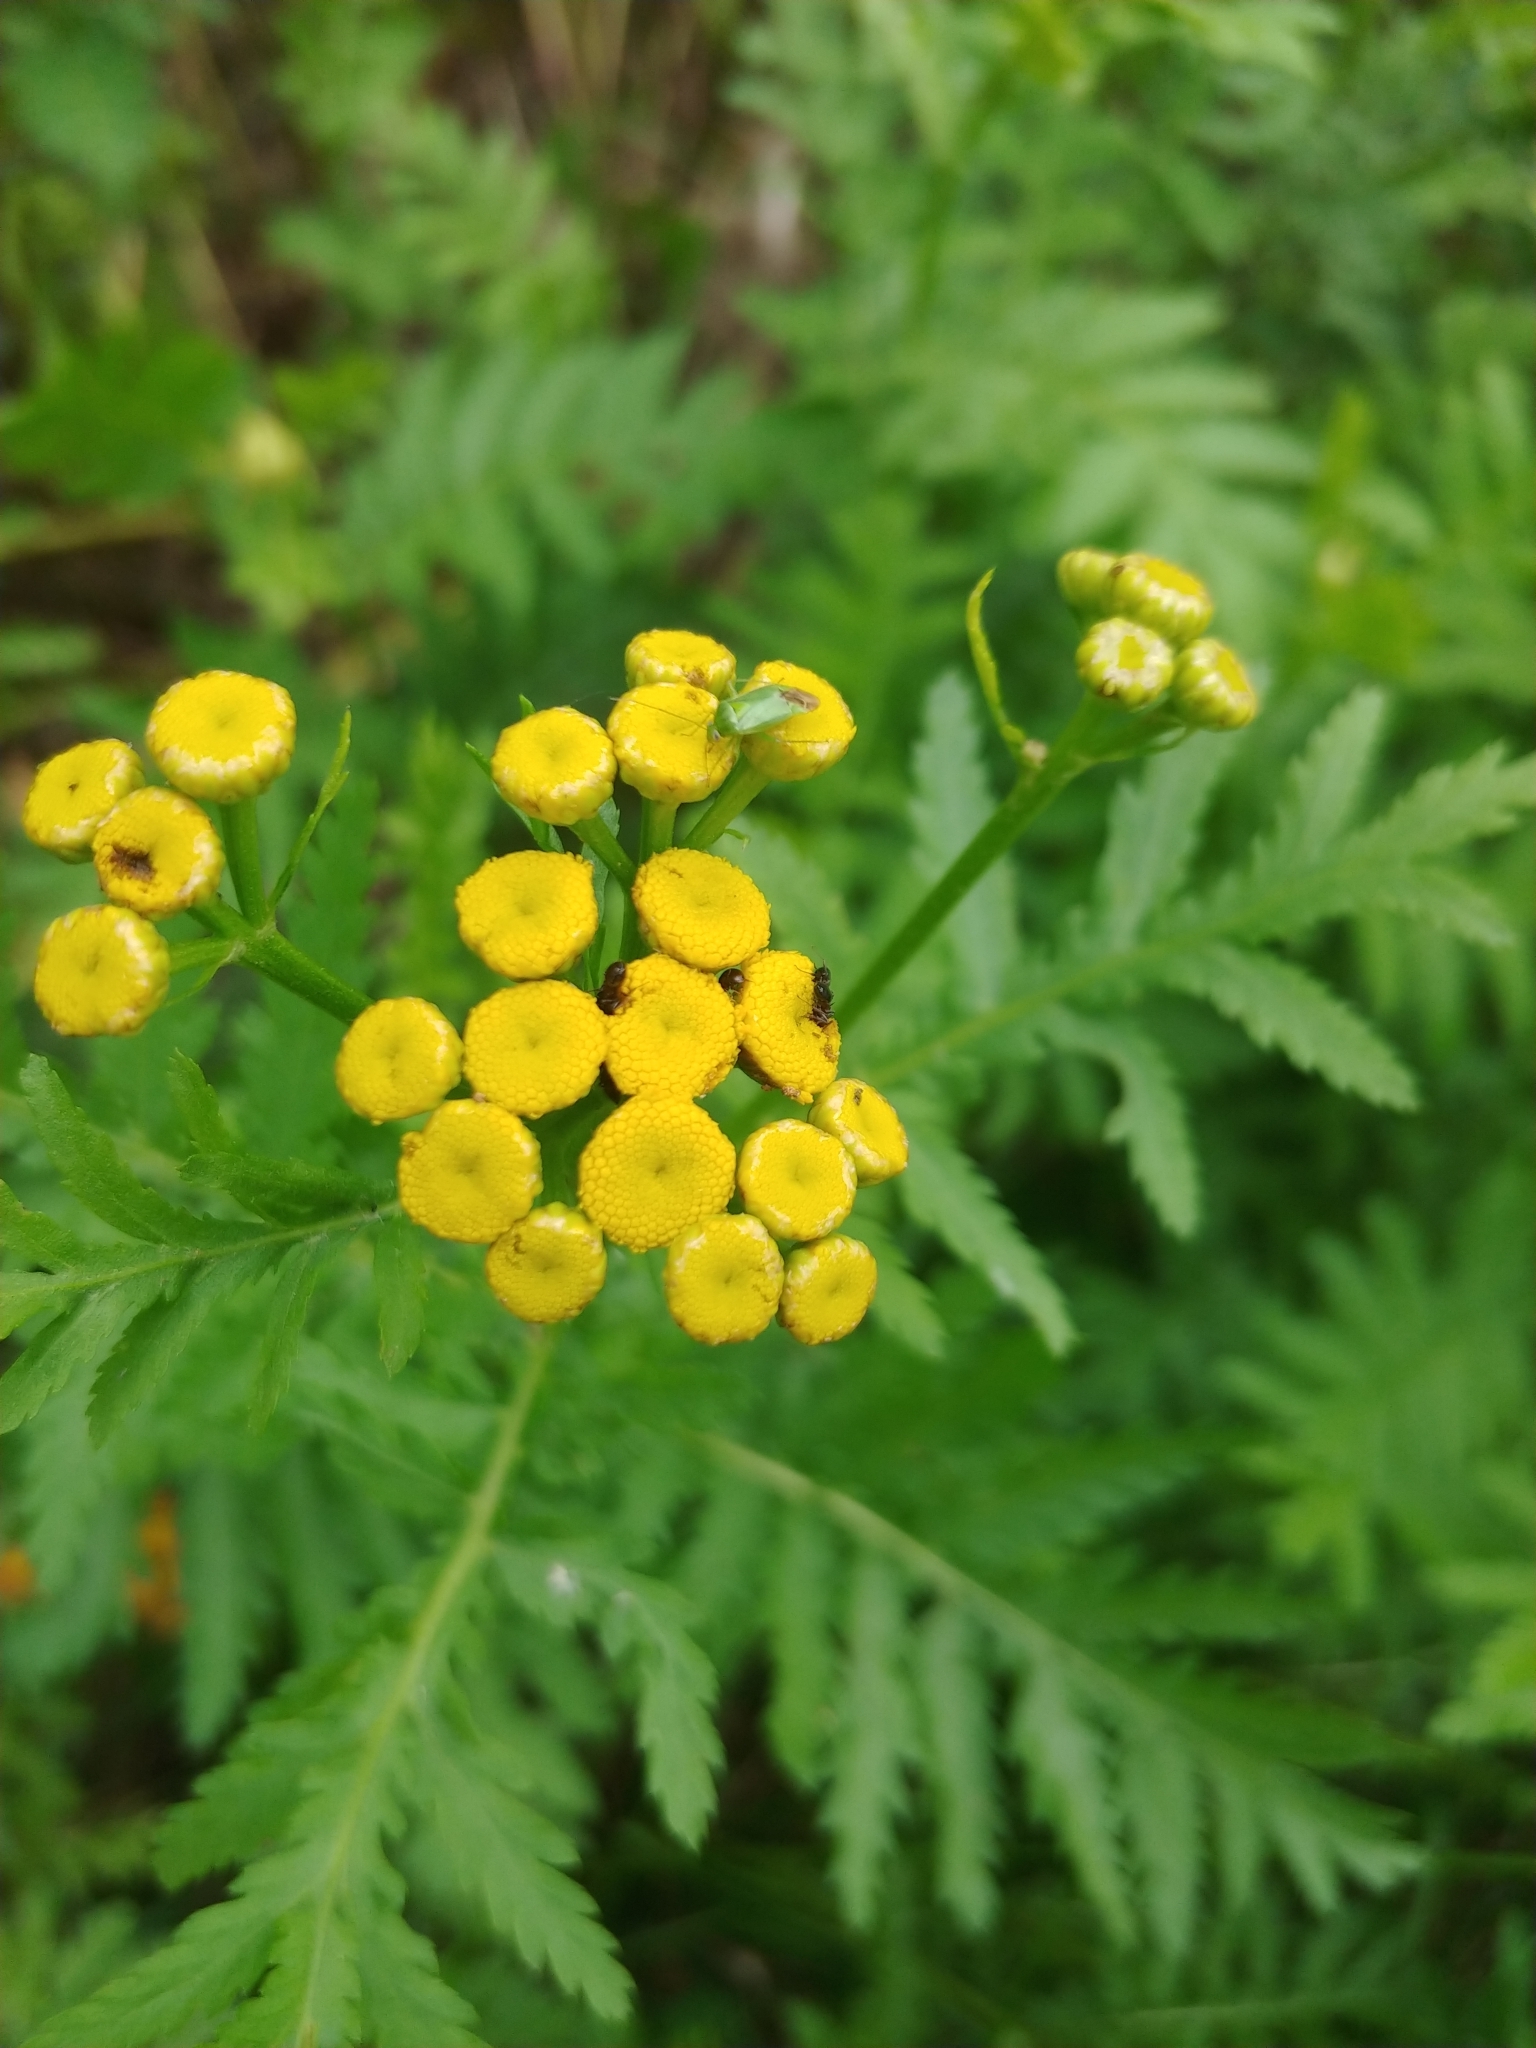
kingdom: Plantae
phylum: Tracheophyta
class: Magnoliopsida
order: Asterales
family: Asteraceae
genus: Tanacetum
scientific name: Tanacetum vulgare
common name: Common tansy
